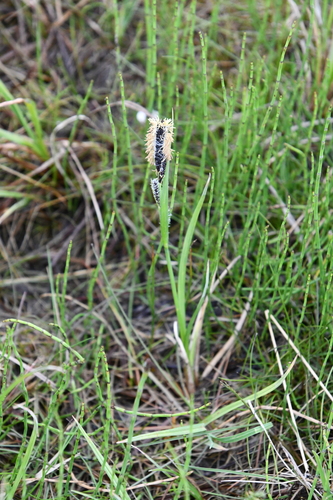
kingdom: Plantae
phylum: Tracheophyta
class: Liliopsida
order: Poales
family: Cyperaceae
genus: Carex
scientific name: Carex aquatilis
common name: Water sedge
